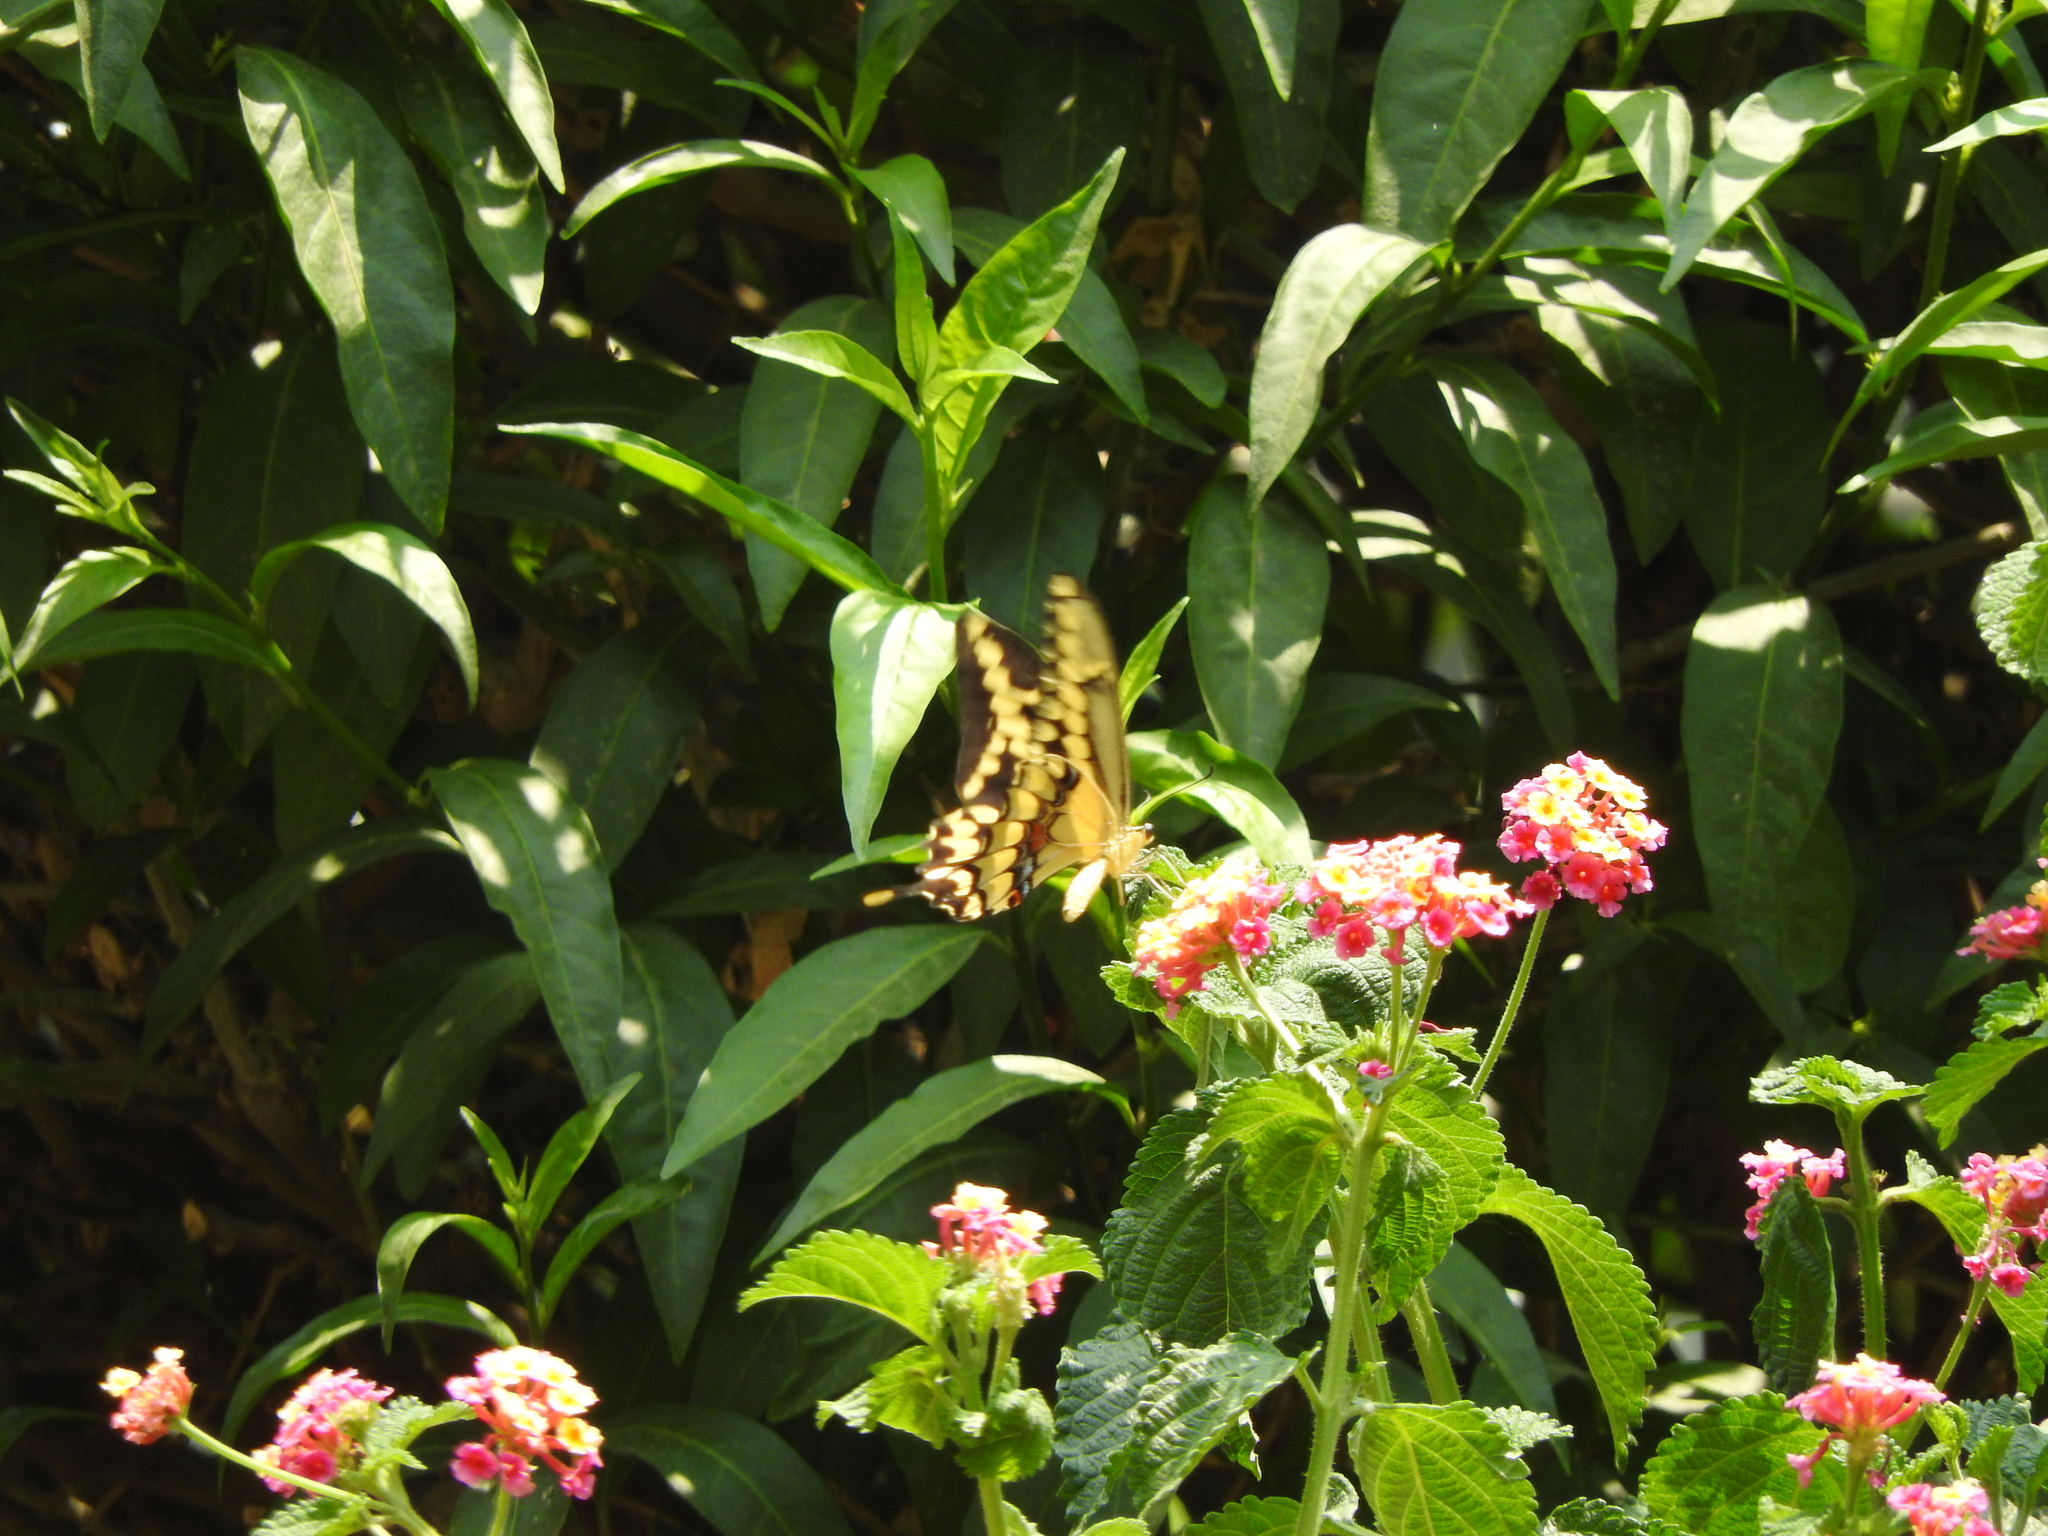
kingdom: Animalia
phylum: Arthropoda
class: Insecta
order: Lepidoptera
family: Papilionidae
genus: Papilio
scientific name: Papilio rumiko
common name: Western giant swallowtail
